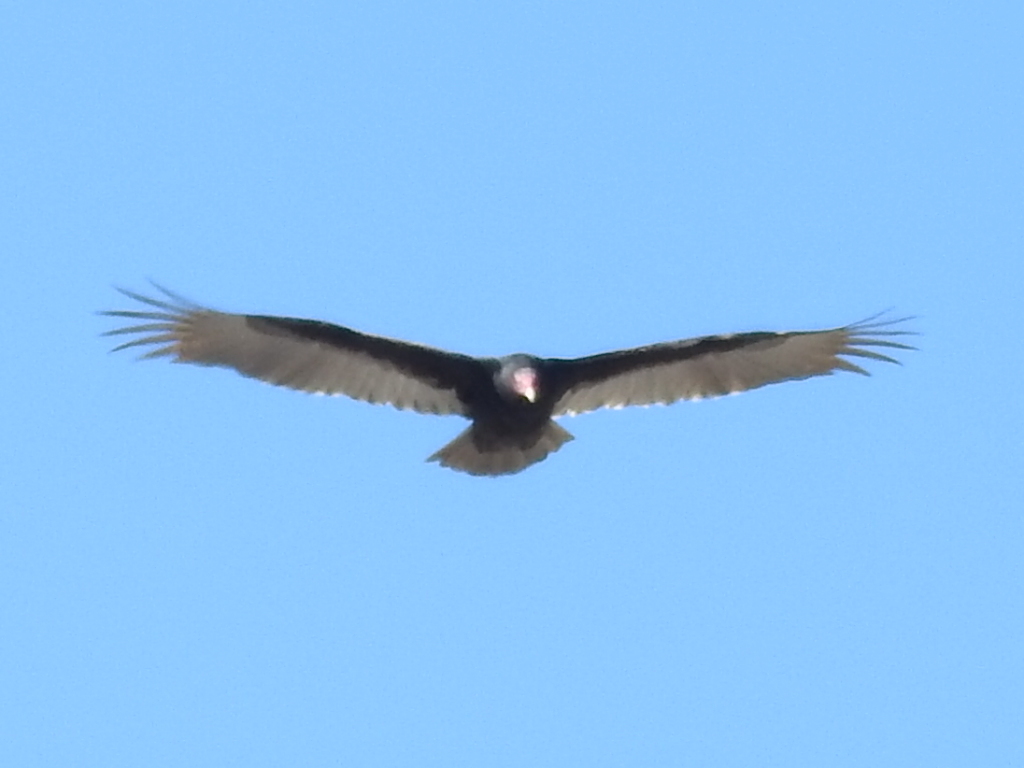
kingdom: Animalia
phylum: Chordata
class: Aves
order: Accipitriformes
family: Cathartidae
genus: Cathartes
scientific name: Cathartes aura
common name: Turkey vulture
